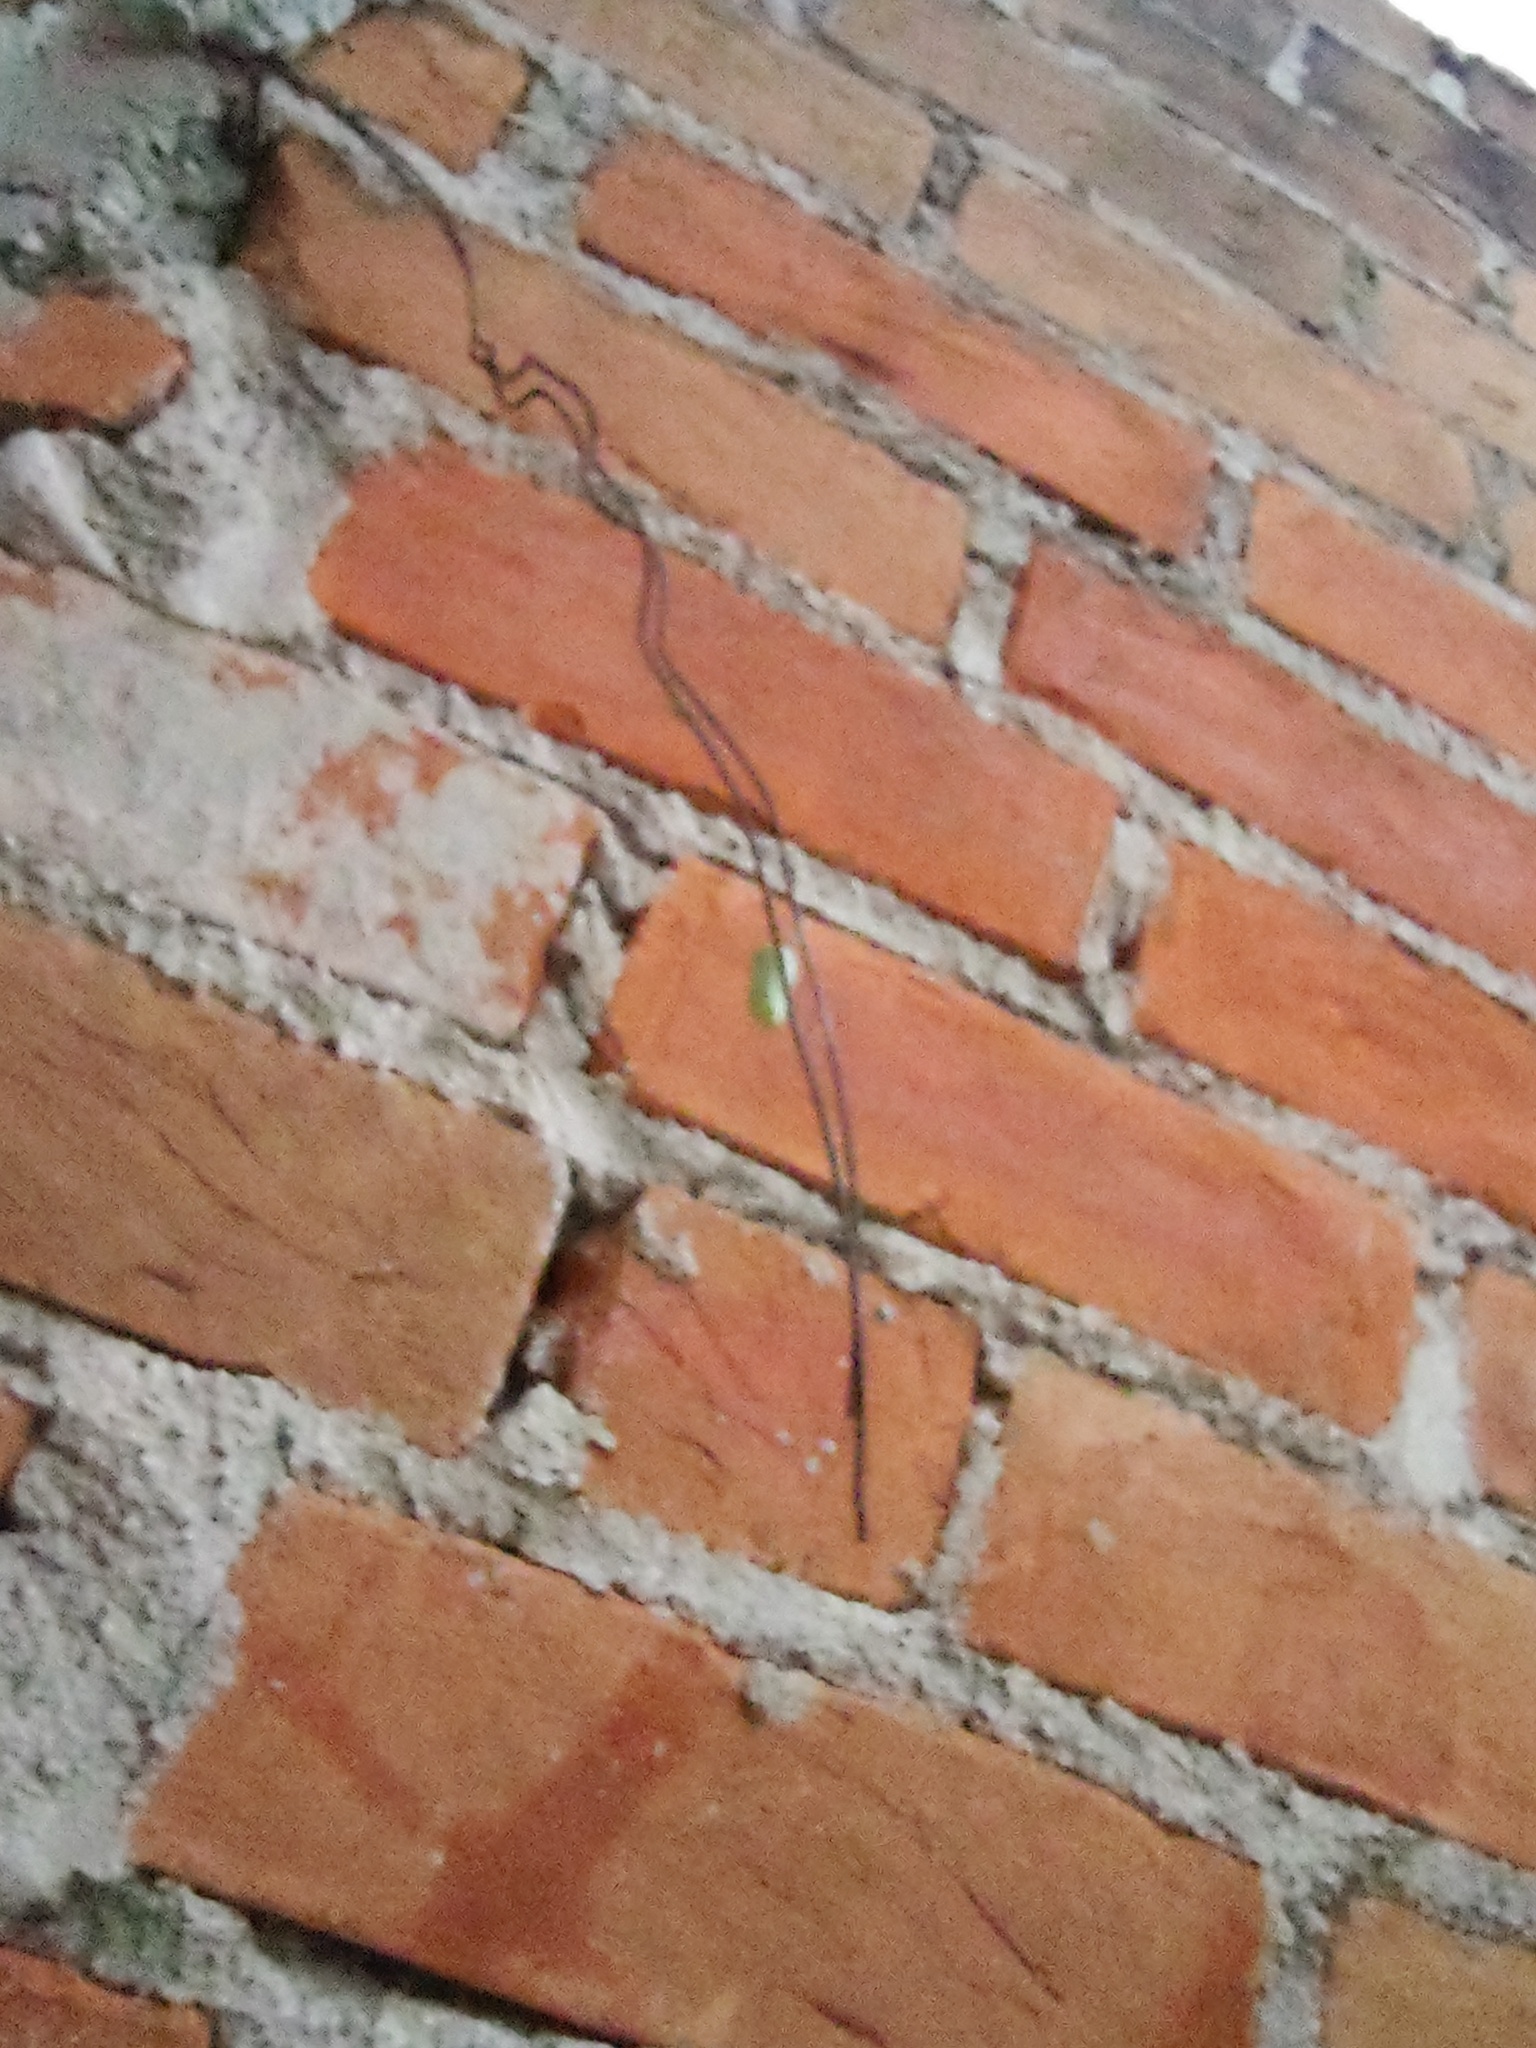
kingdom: Animalia
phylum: Arthropoda
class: Insecta
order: Lepidoptera
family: Nymphalidae
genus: Danaus
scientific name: Danaus plexippus
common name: Monarch
